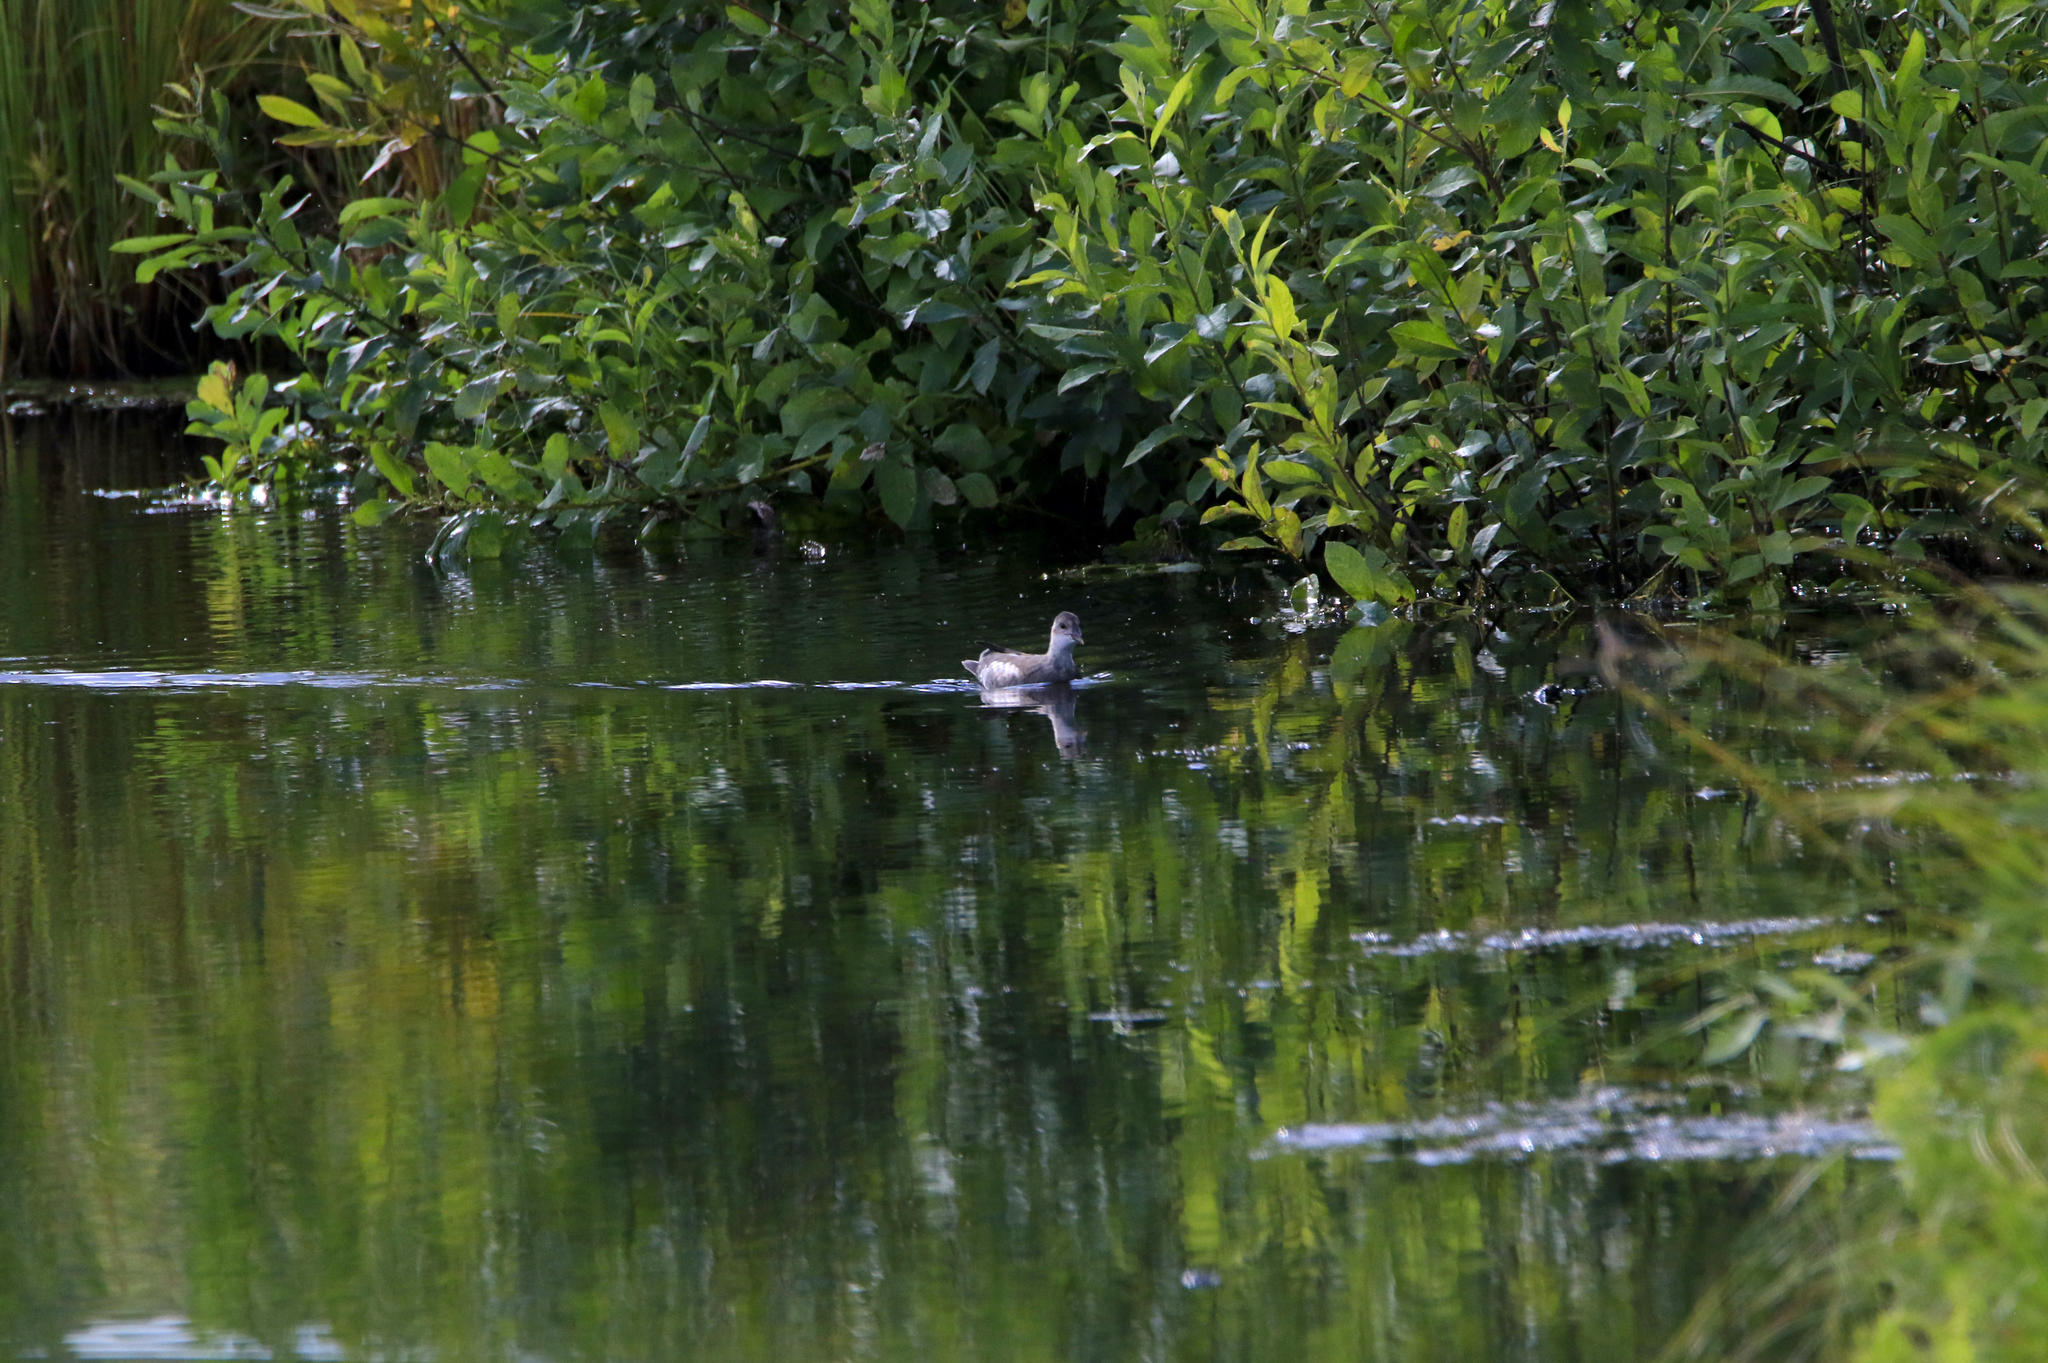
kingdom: Animalia
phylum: Chordata
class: Aves
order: Gruiformes
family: Rallidae
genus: Gallinula
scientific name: Gallinula chloropus
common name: Common moorhen
